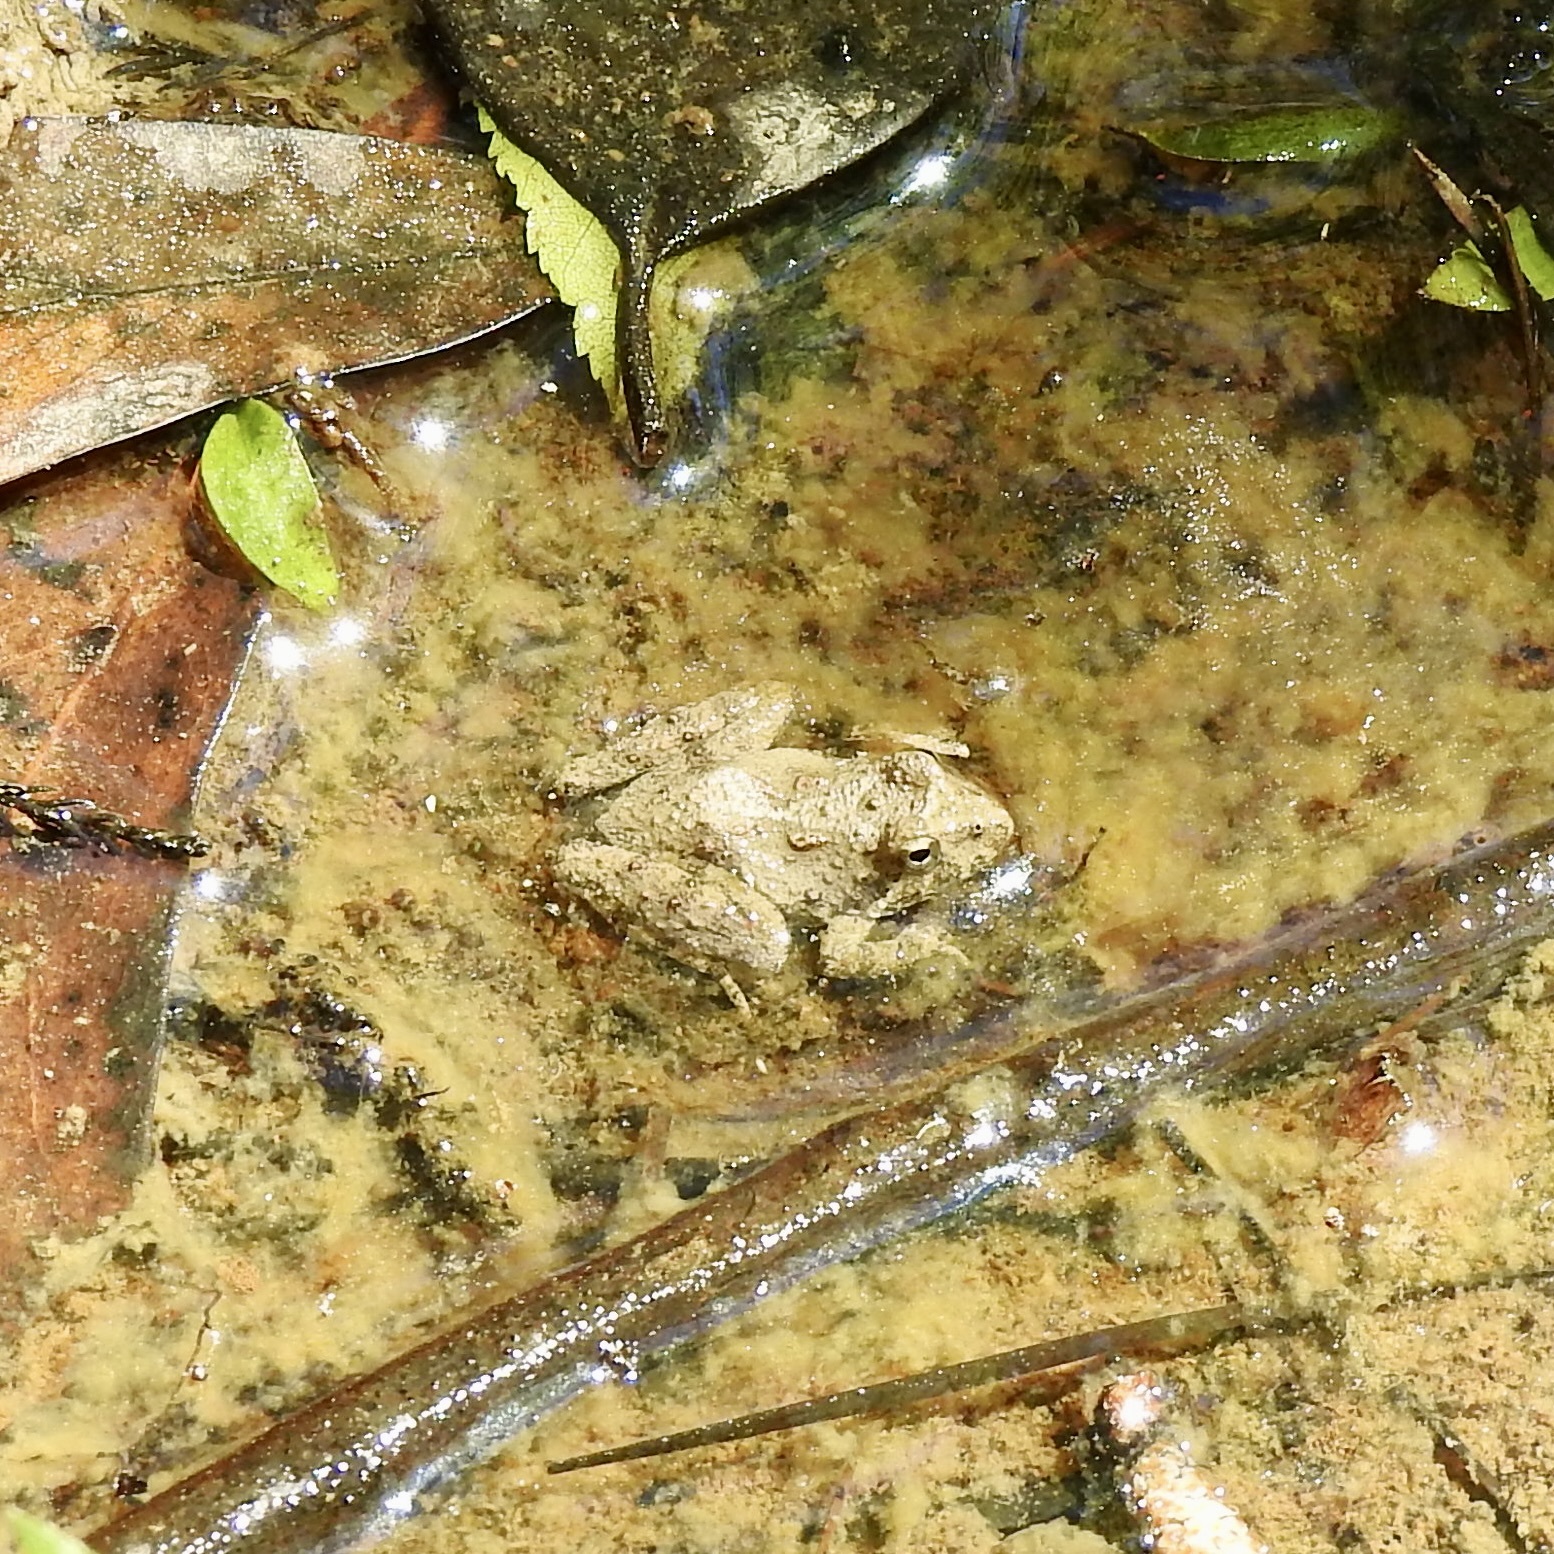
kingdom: Animalia
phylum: Chordata
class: Amphibia
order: Anura
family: Hylidae
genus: Acris
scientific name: Acris blanchardi
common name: Blanchard's cricket frog
